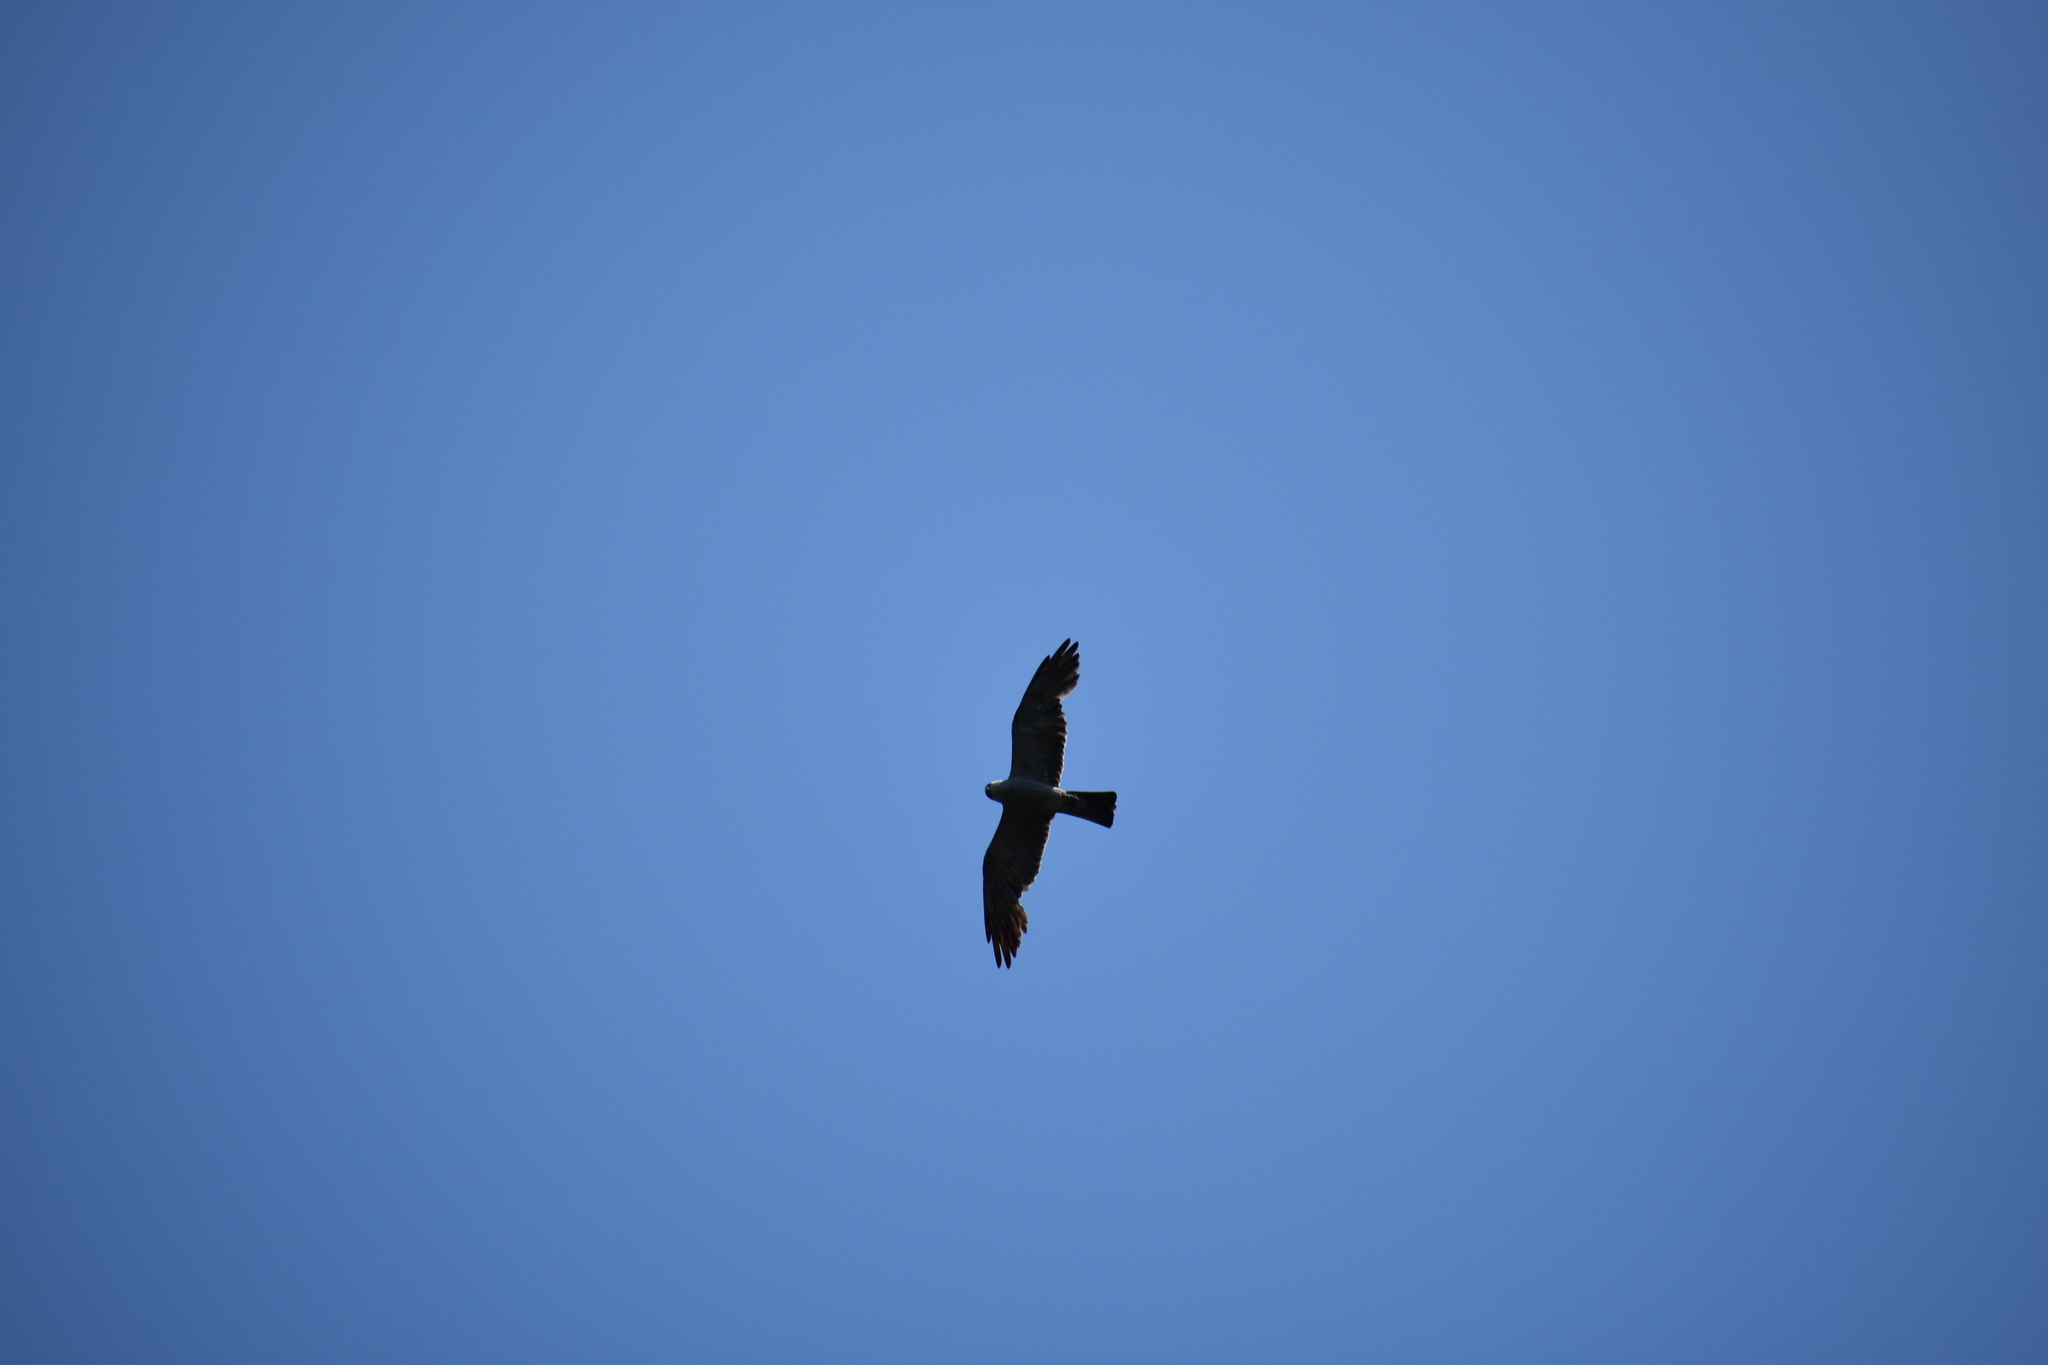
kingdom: Animalia
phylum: Chordata
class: Aves
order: Accipitriformes
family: Accipitridae
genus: Ictinia
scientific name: Ictinia mississippiensis
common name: Mississippi kite
